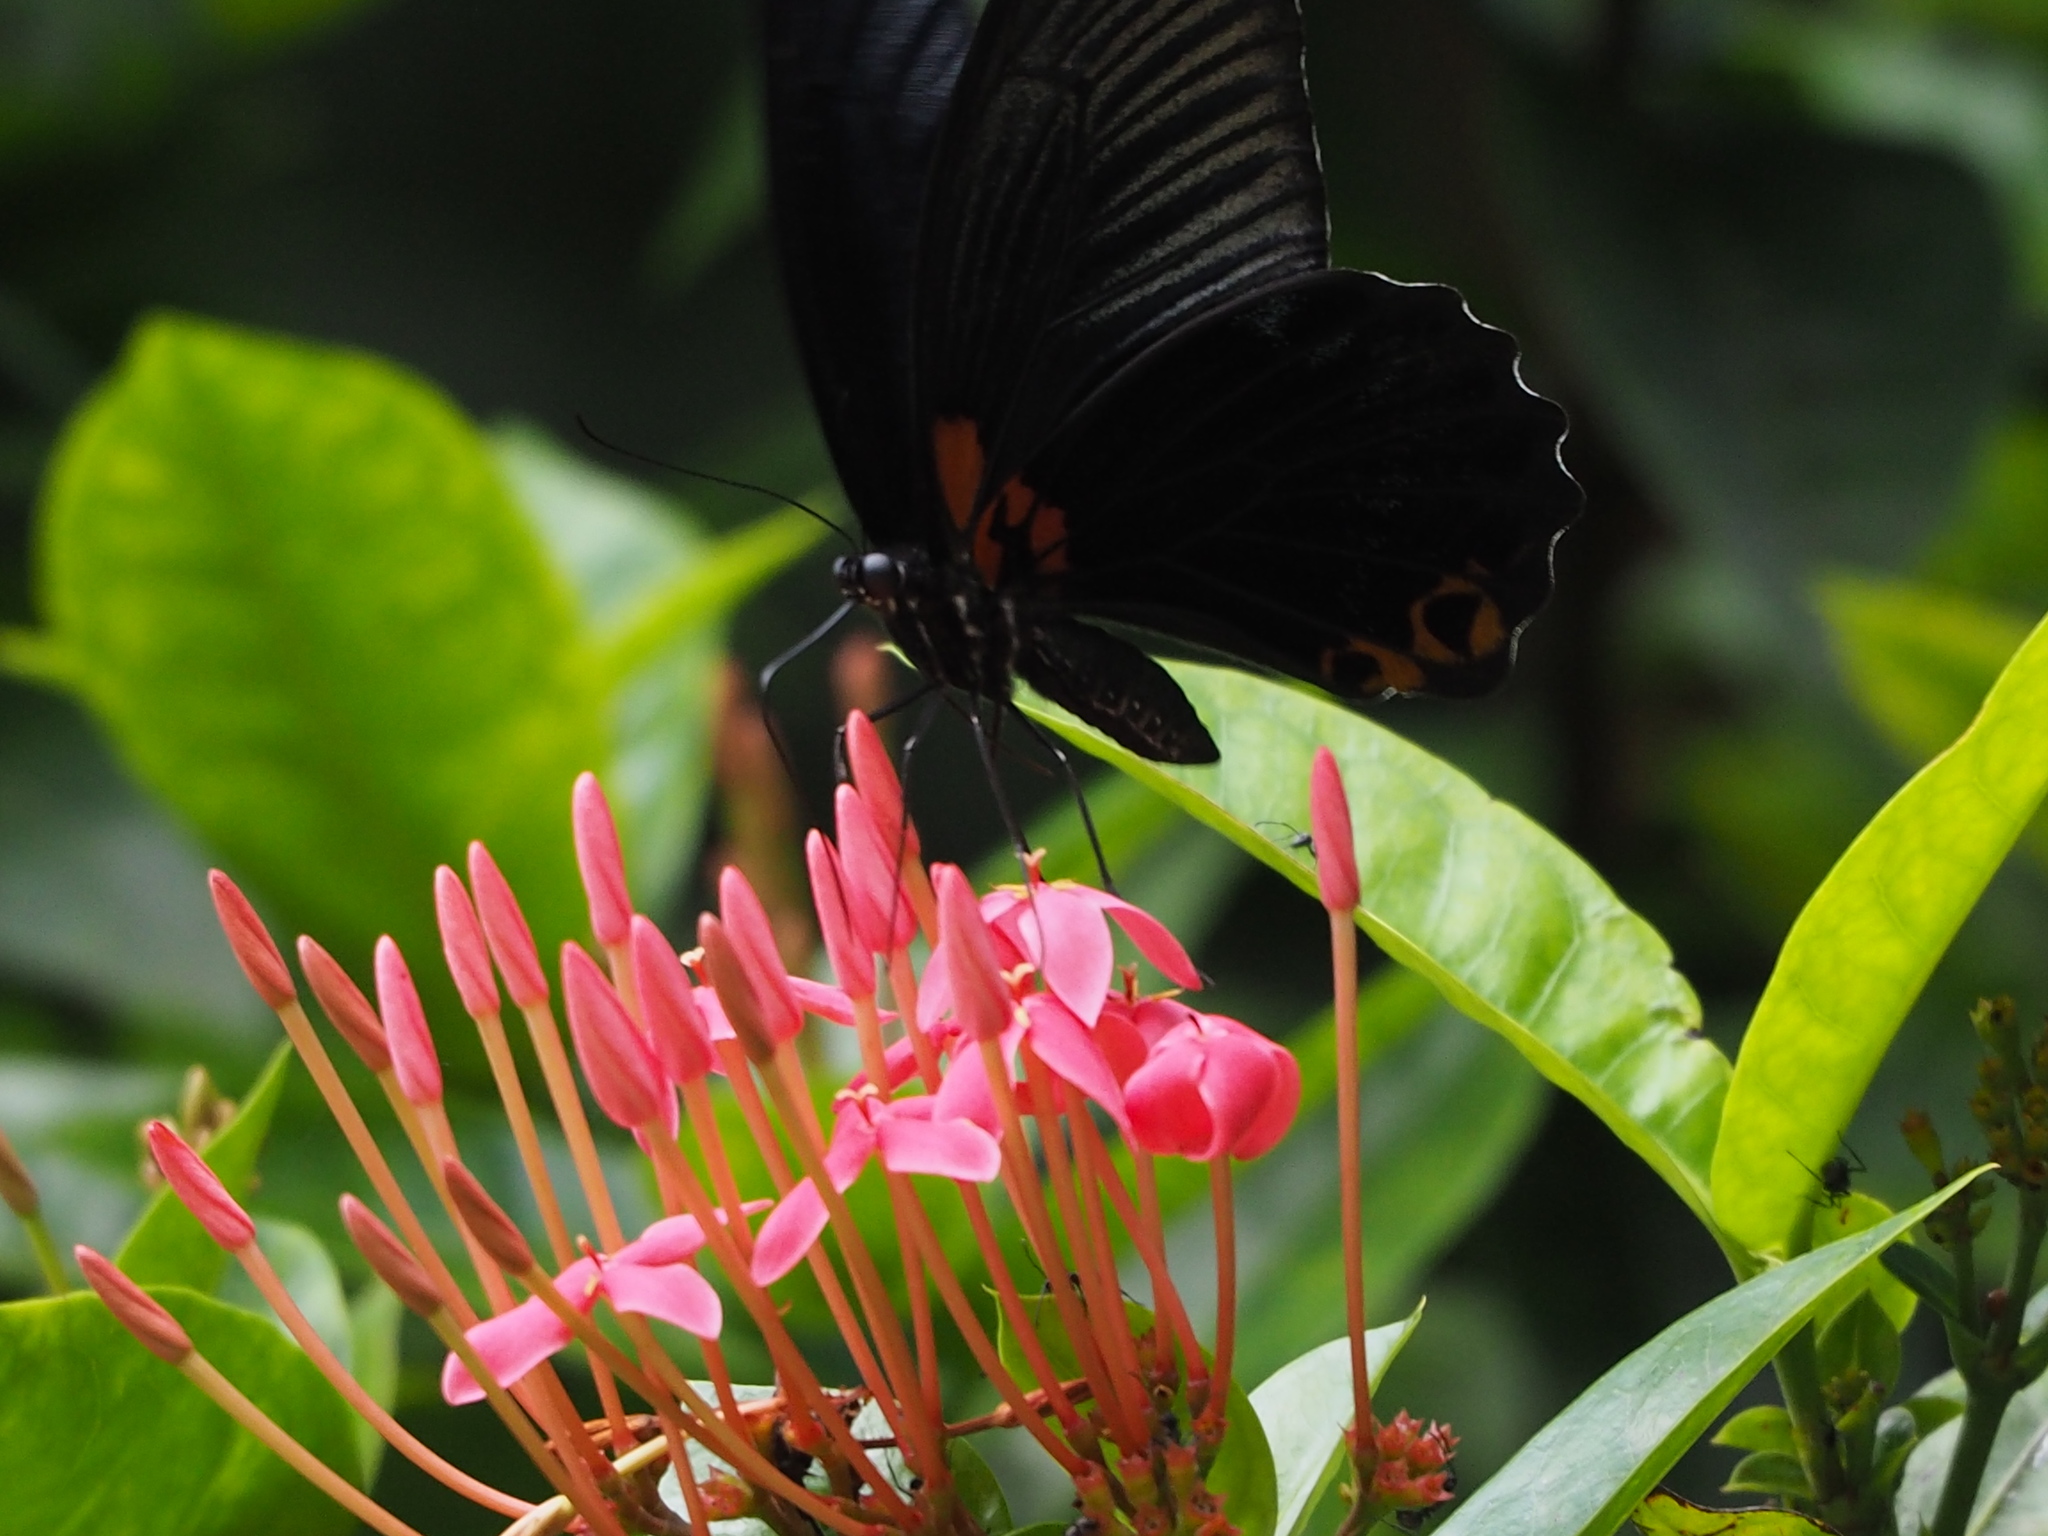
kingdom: Animalia
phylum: Arthropoda
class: Insecta
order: Lepidoptera
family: Papilionidae
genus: Papilio
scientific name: Papilio memnon
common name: Great mormon
